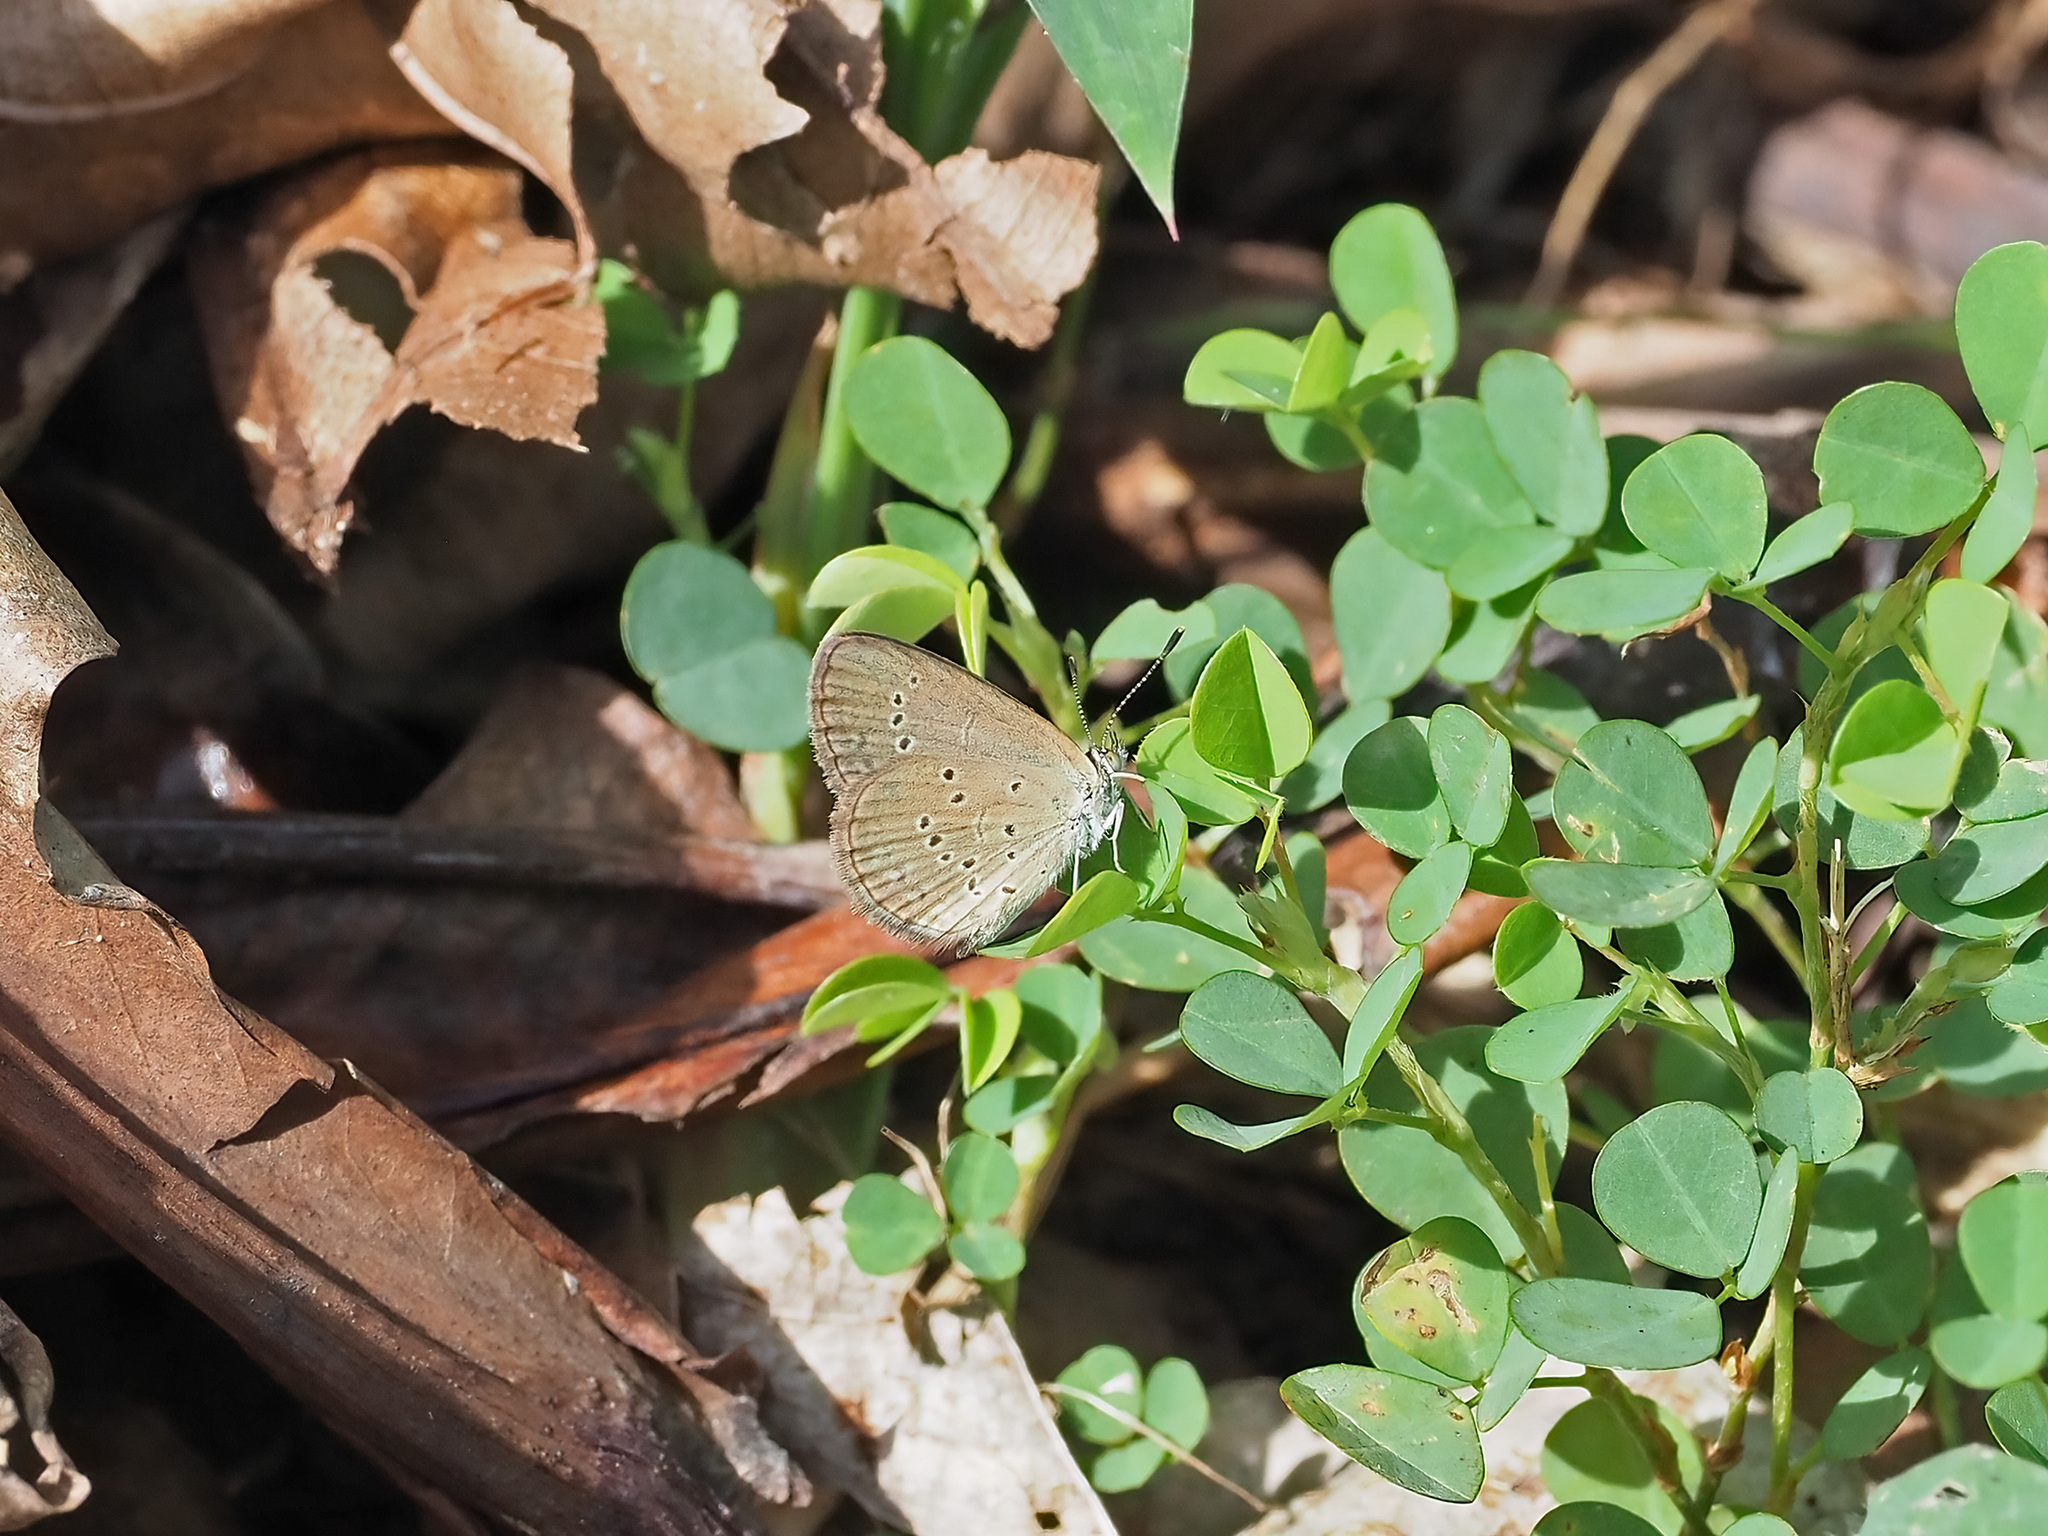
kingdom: Animalia
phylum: Arthropoda
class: Insecta
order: Lepidoptera
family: Lycaenidae
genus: Zizina
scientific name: Zizina otis
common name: Lesser grass blue
